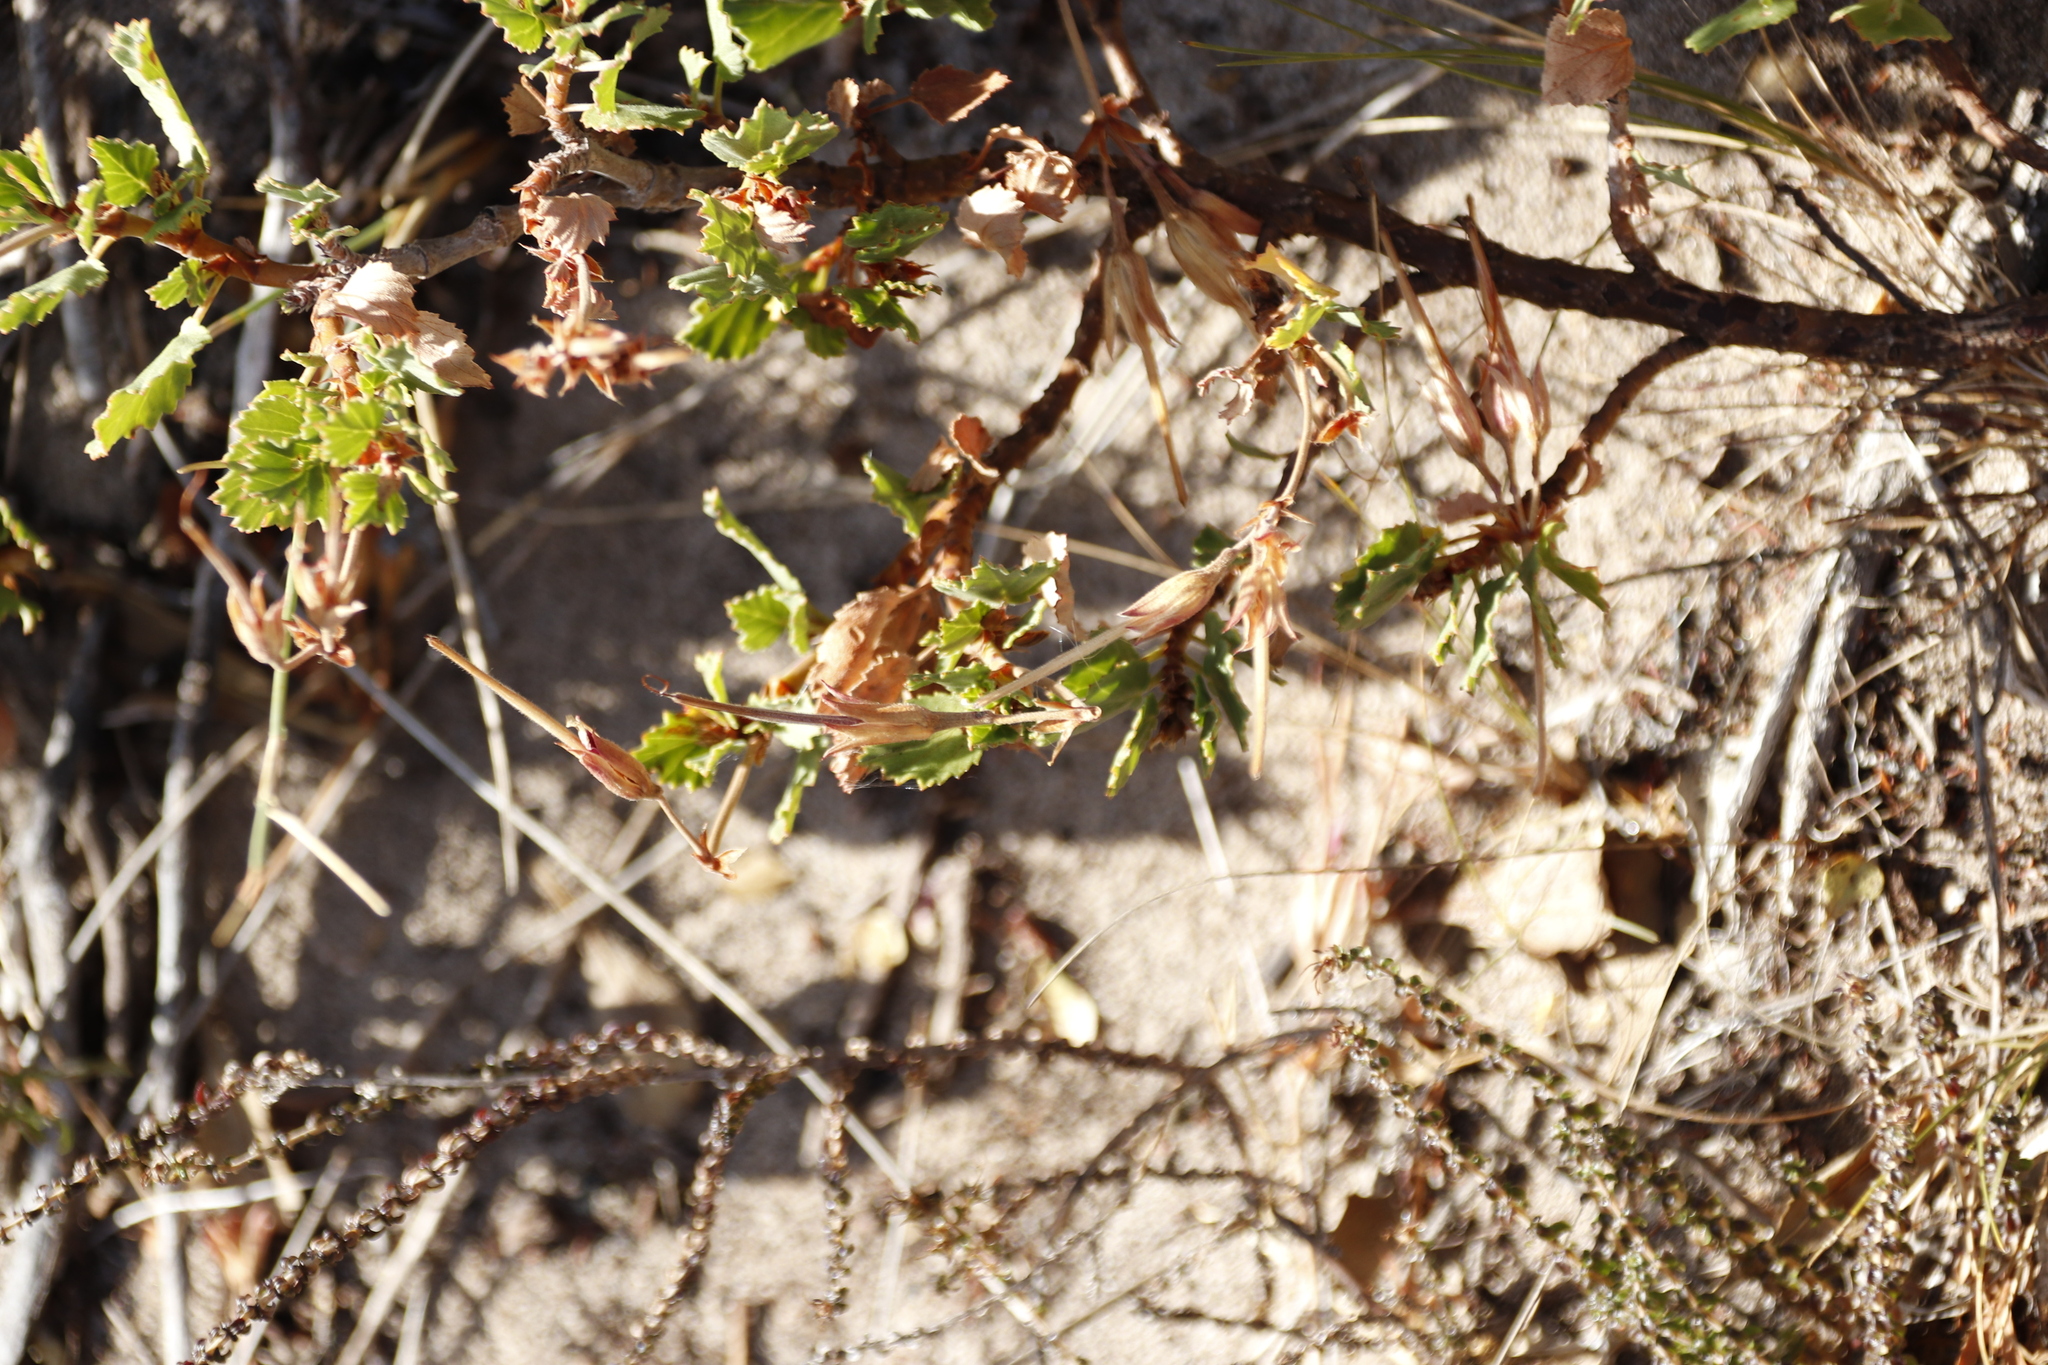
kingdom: Plantae
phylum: Tracheophyta
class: Magnoliopsida
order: Geraniales
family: Geraniaceae
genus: Pelargonium
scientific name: Pelargonium betulinum
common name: Birch-leaf pelargonium
